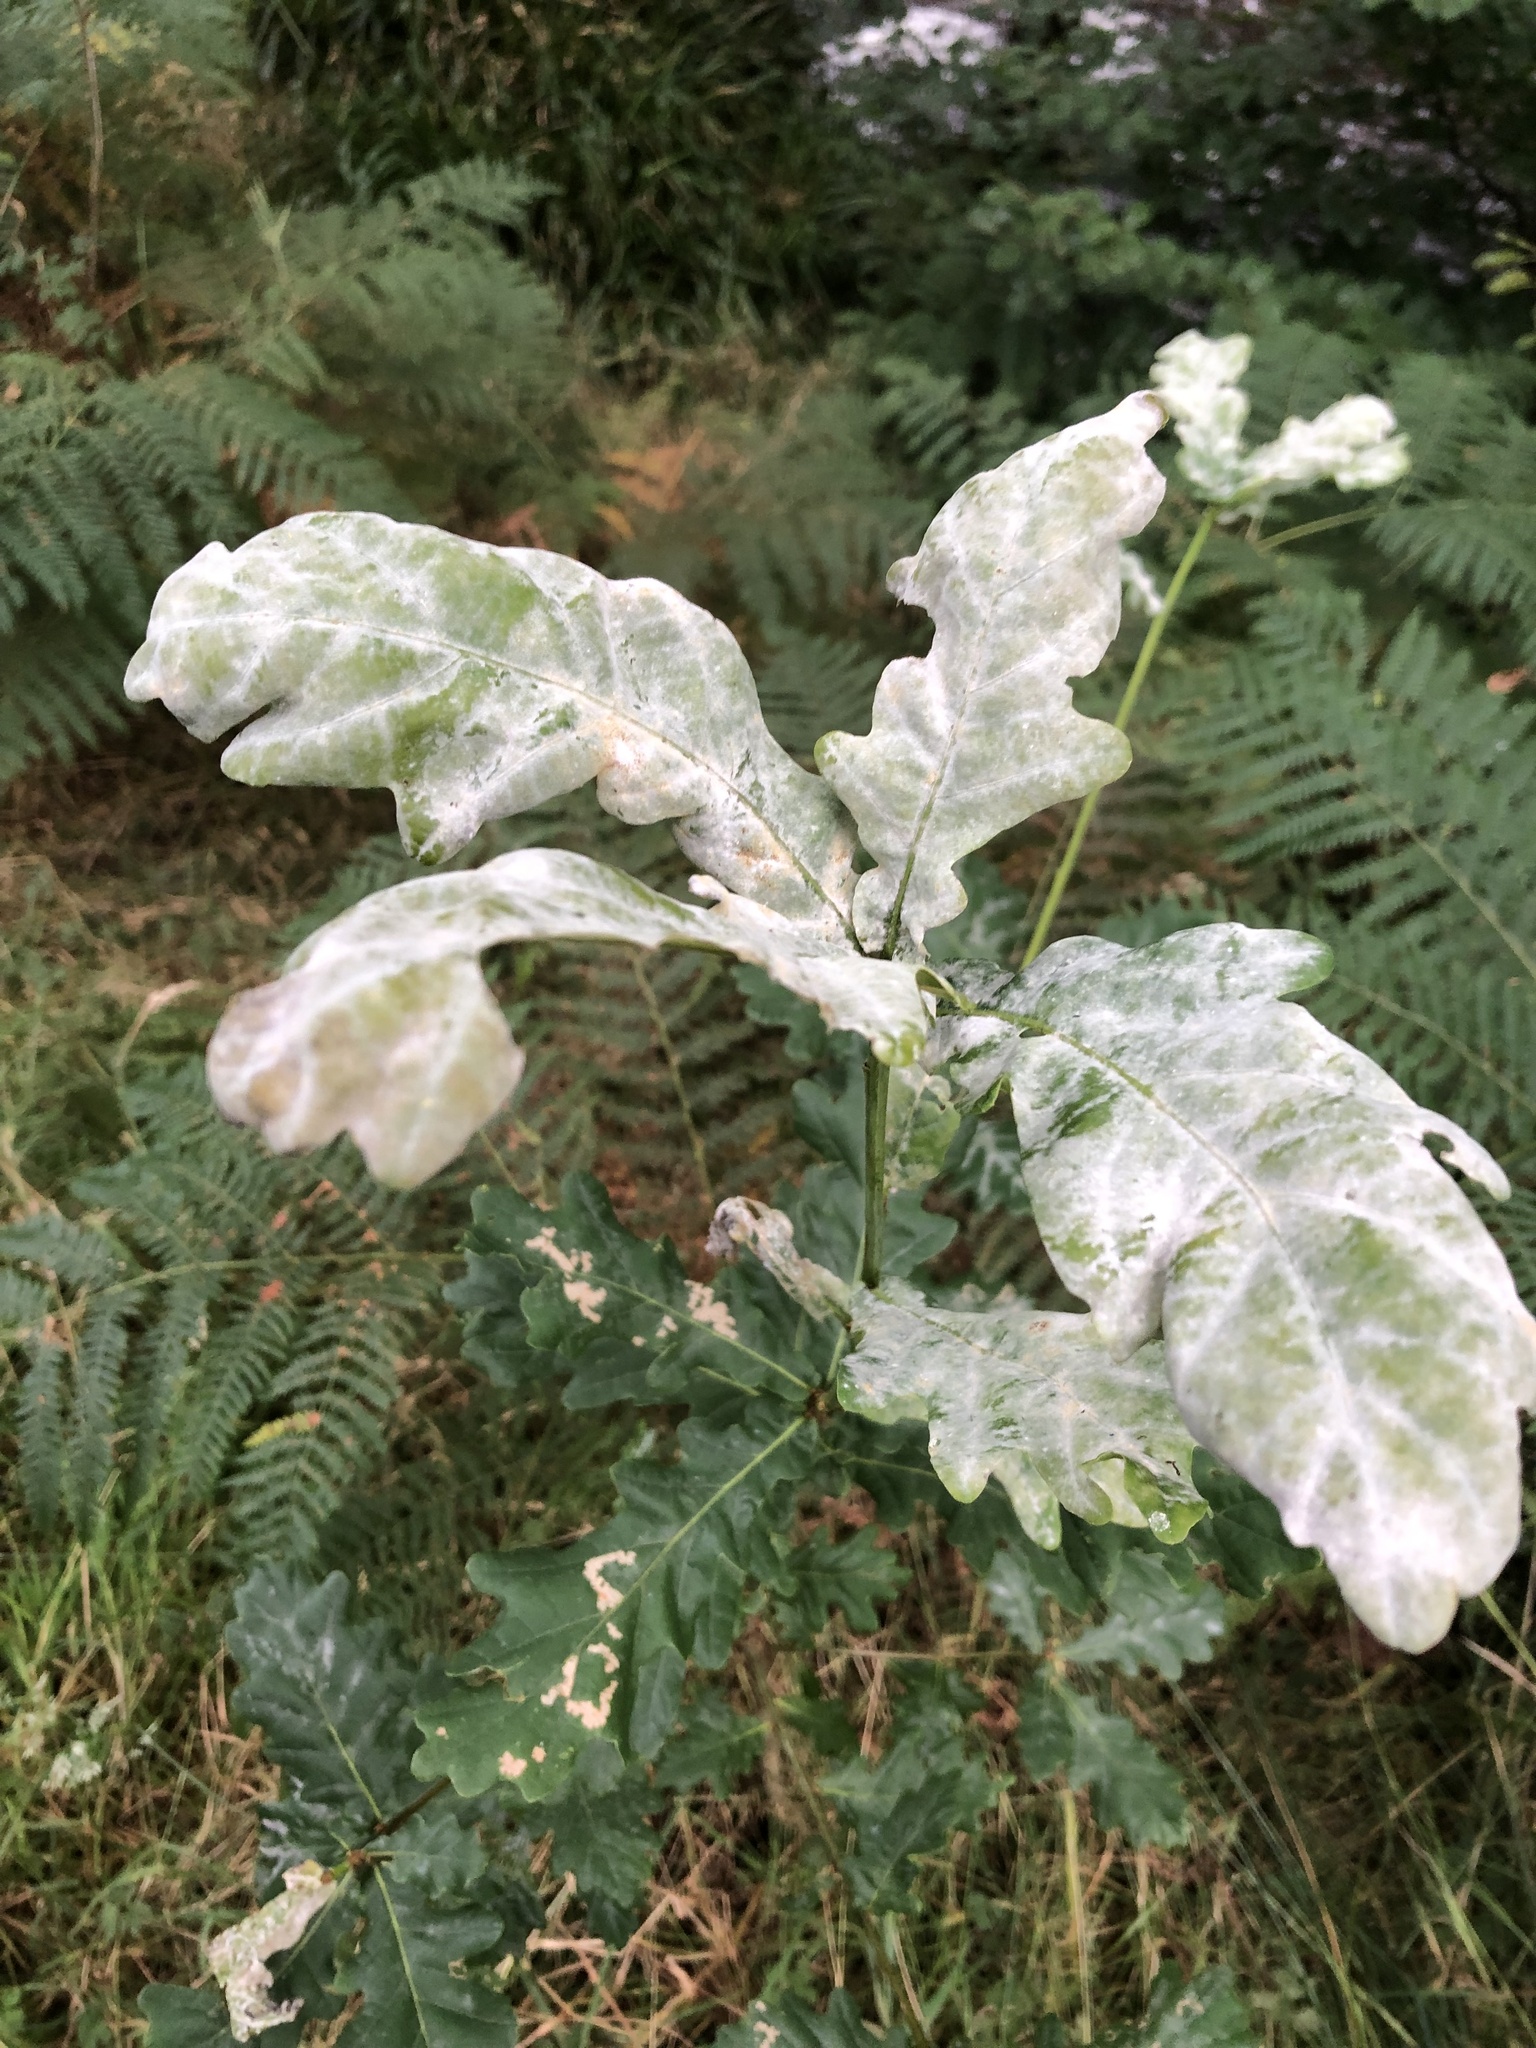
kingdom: Fungi
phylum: Ascomycota
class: Leotiomycetes
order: Helotiales
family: Erysiphaceae
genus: Erysiphe
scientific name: Erysiphe alphitoides
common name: Oak mildew
